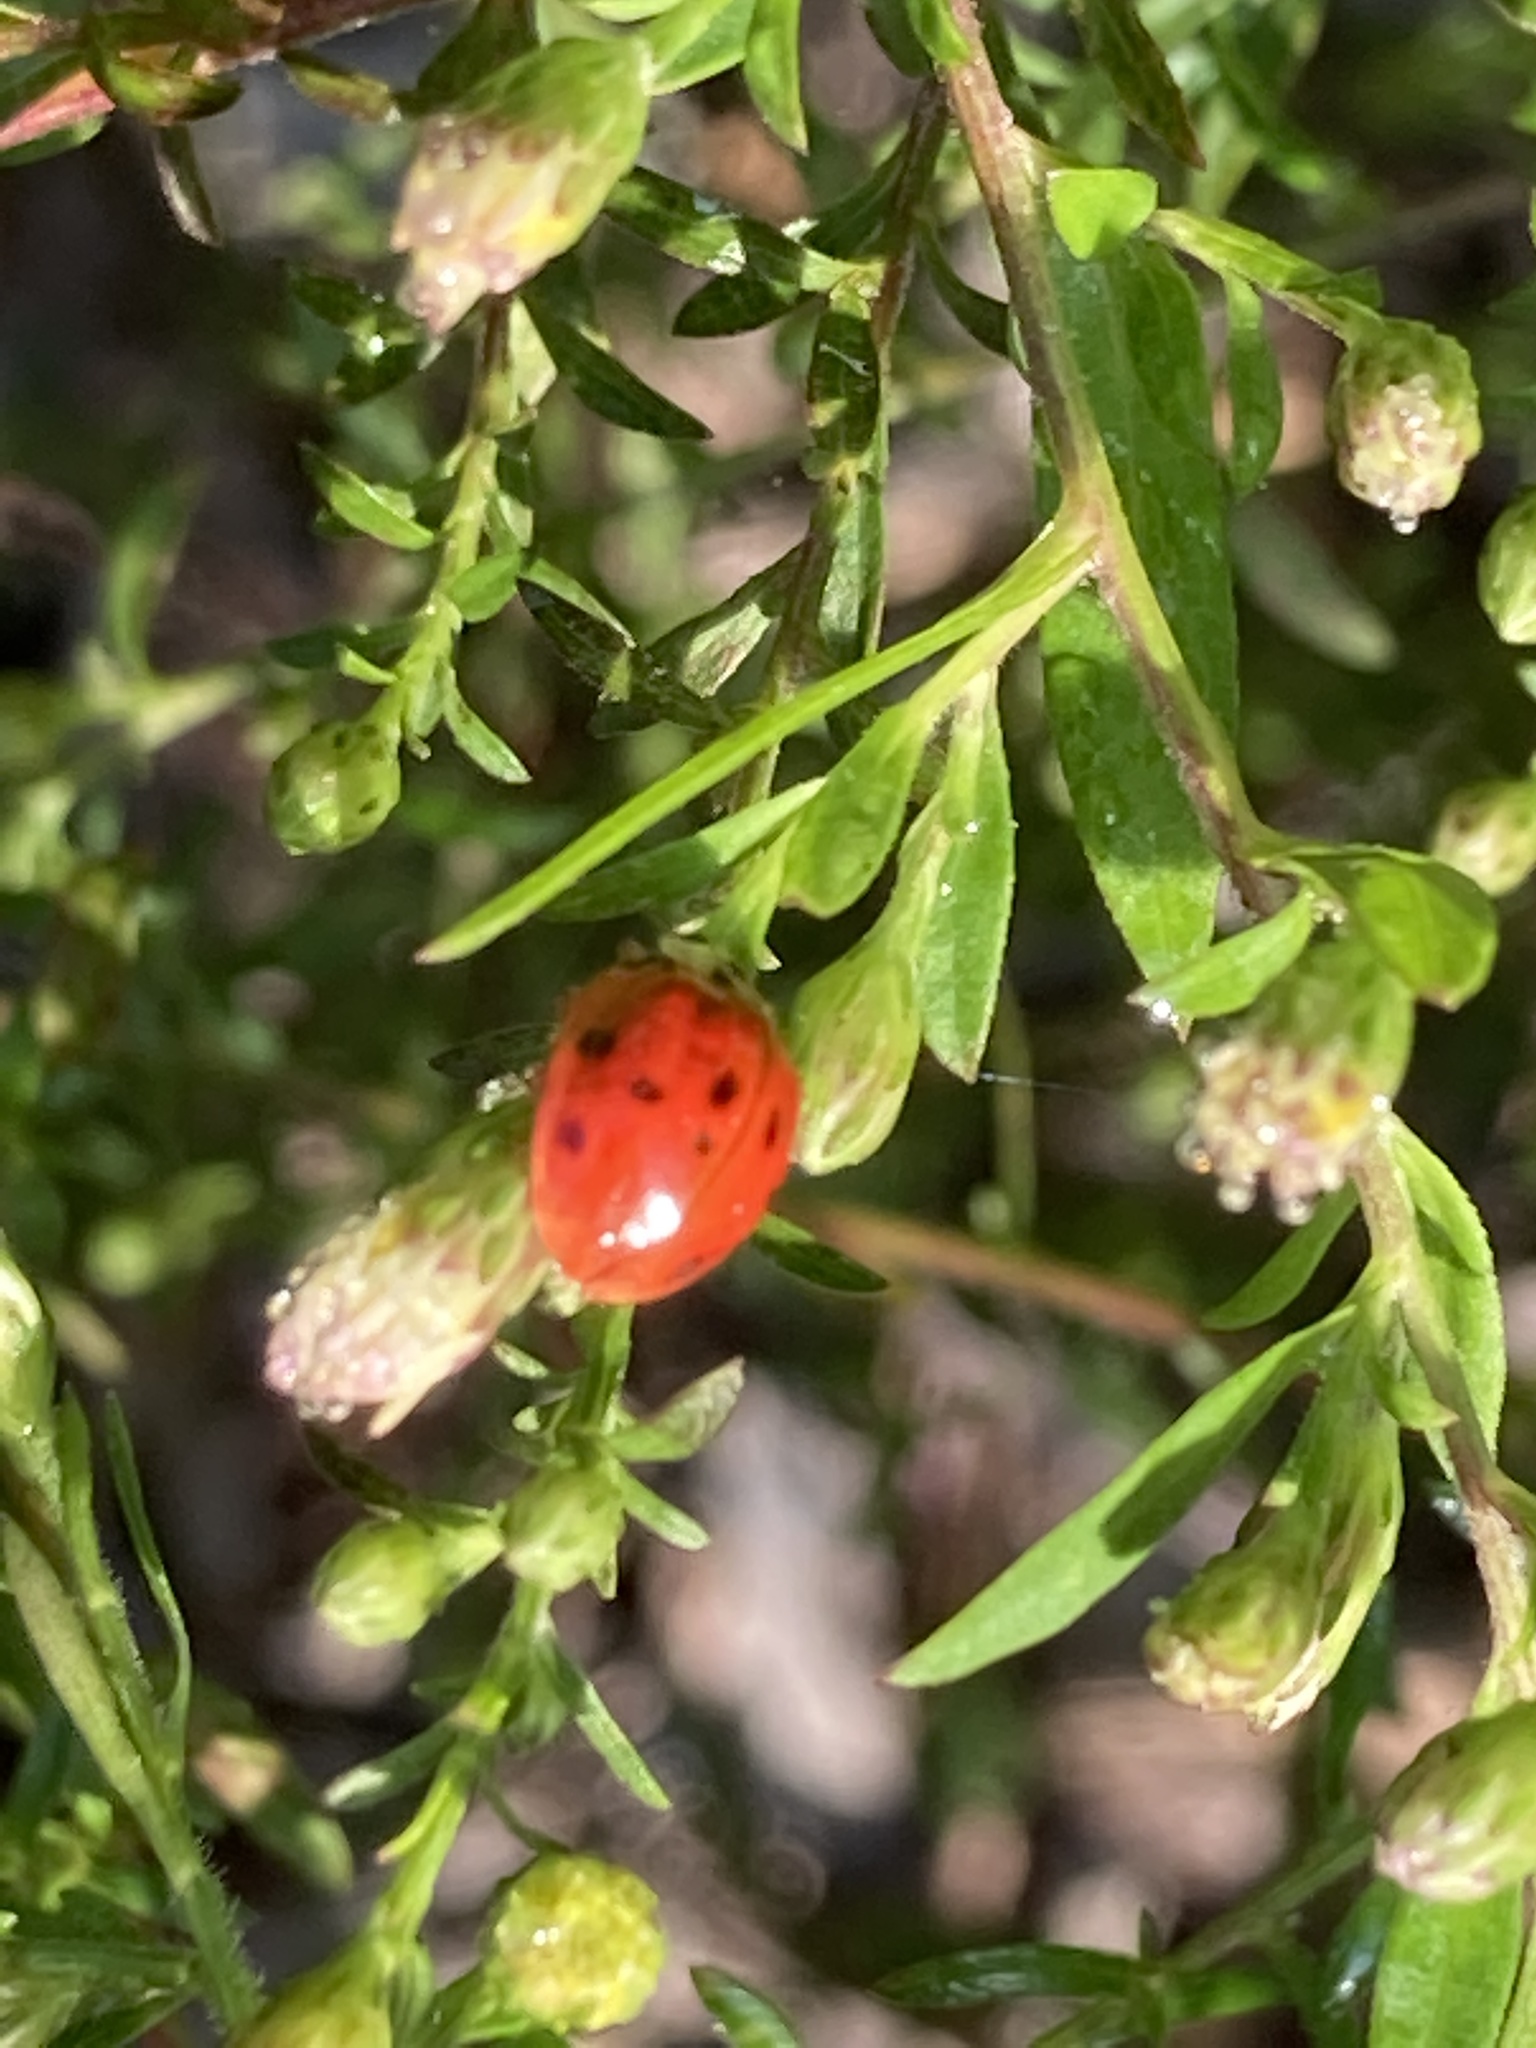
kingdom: Animalia
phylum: Arthropoda
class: Insecta
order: Coleoptera
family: Coccinellidae
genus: Harmonia
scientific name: Harmonia axyridis
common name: Harlequin ladybird
